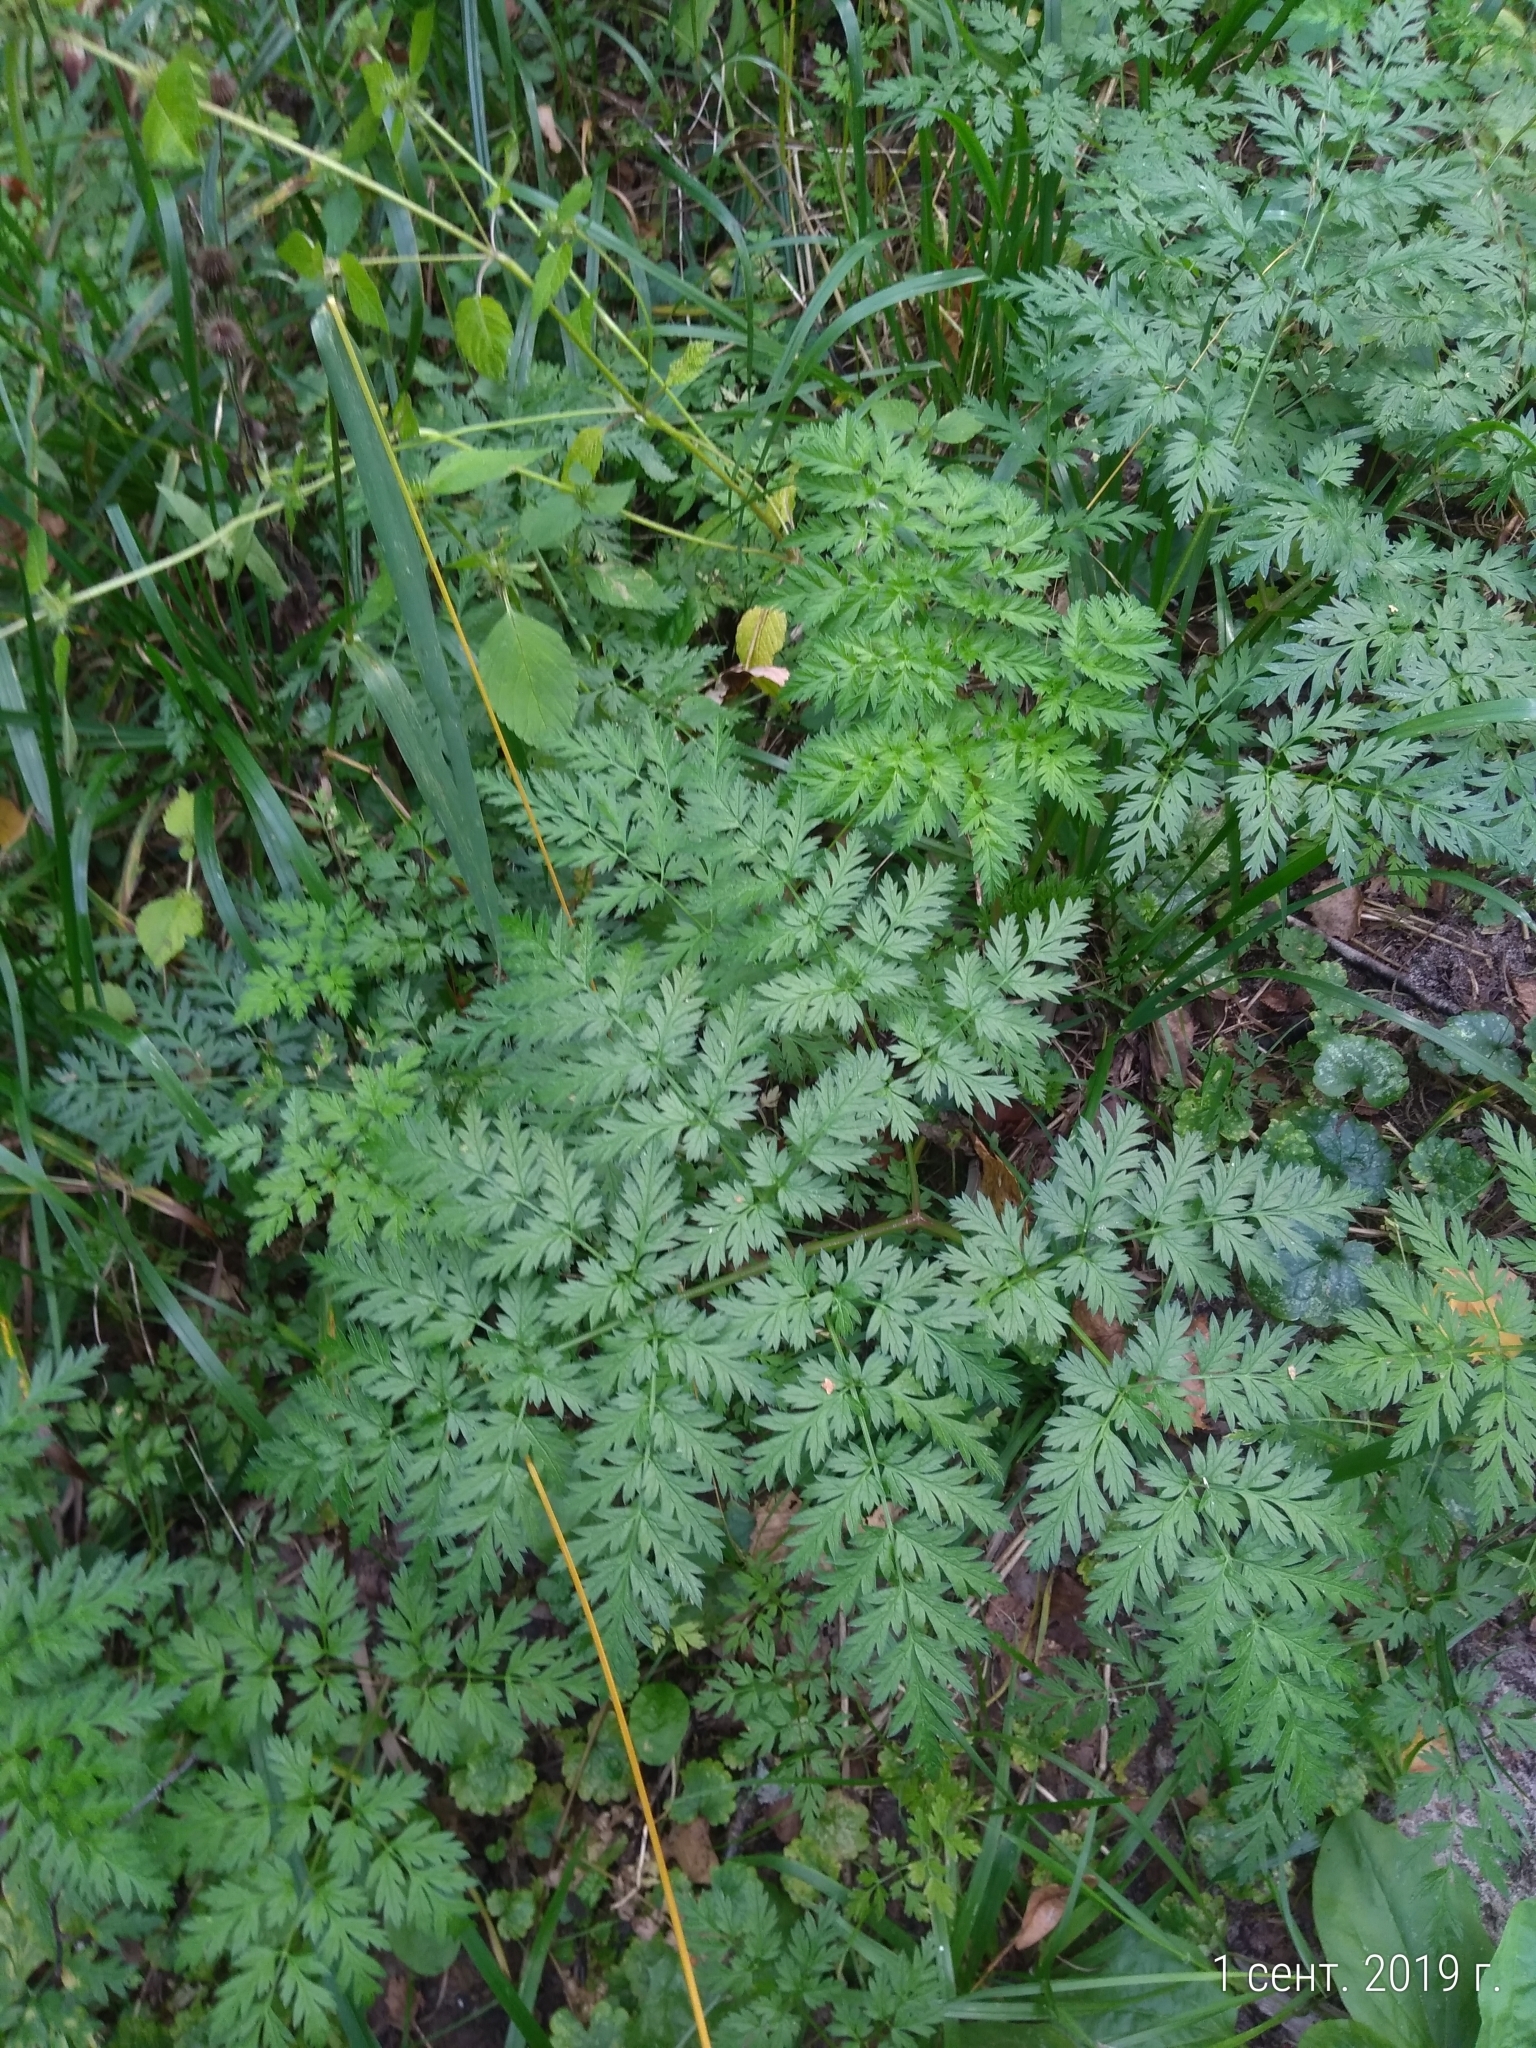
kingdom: Plantae
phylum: Tracheophyta
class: Magnoliopsida
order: Apiales
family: Apiaceae
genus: Anthriscus
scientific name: Anthriscus sylvestris
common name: Cow parsley
